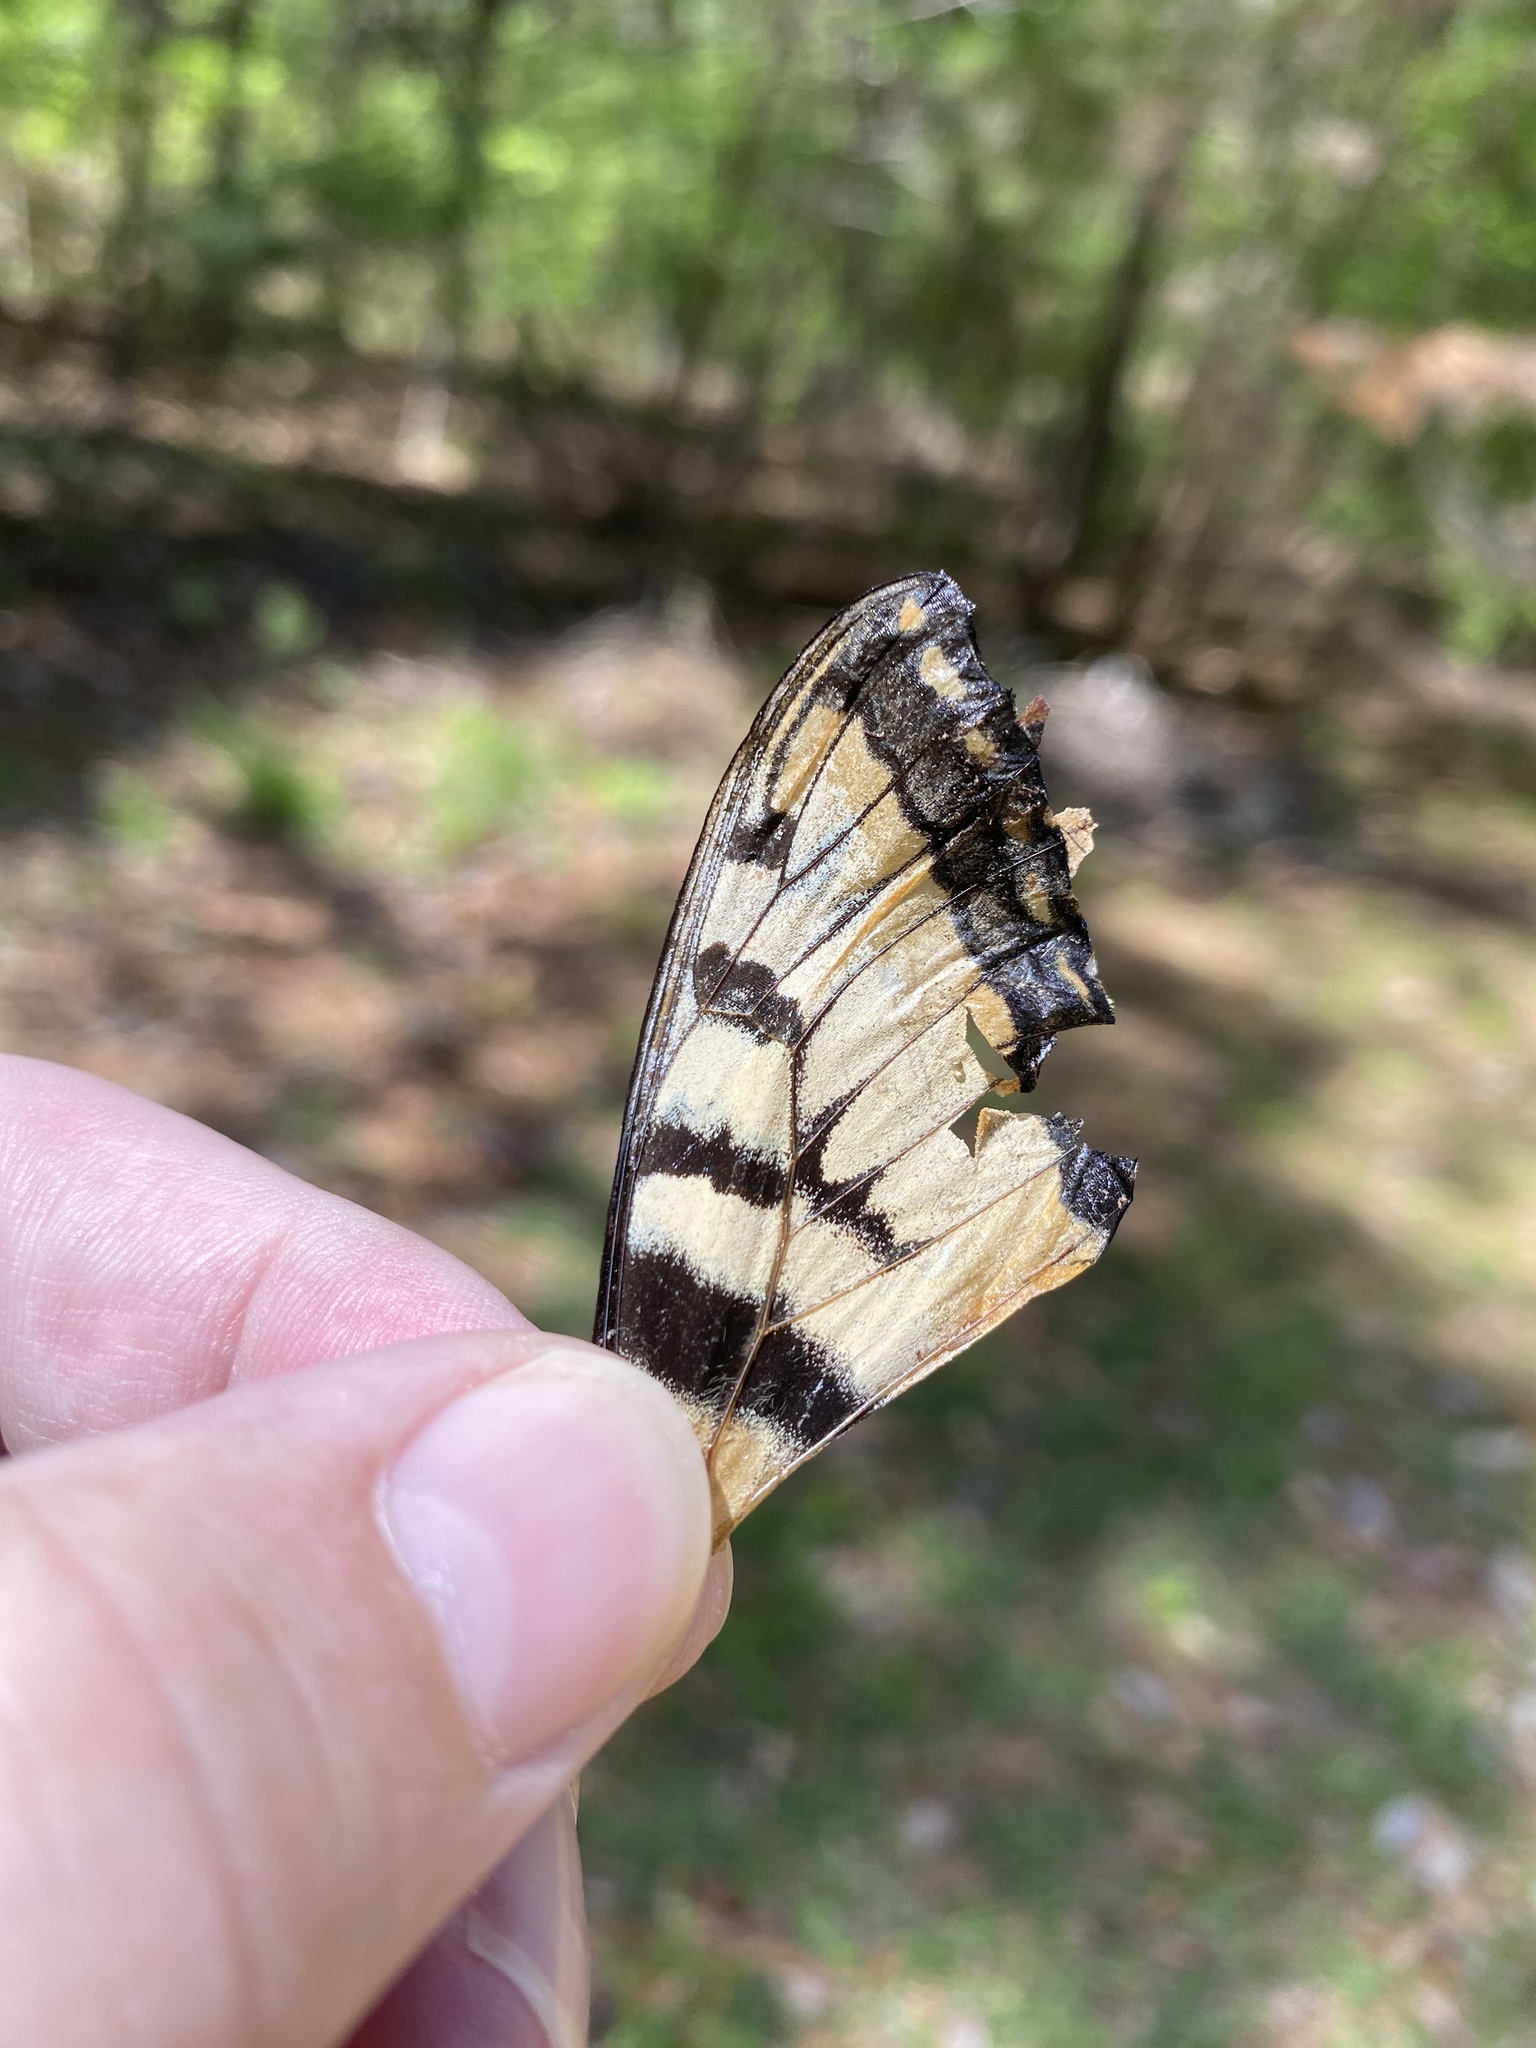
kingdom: Animalia
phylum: Arthropoda
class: Insecta
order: Lepidoptera
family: Papilionidae
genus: Papilio
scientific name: Papilio glaucus
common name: Tiger swallowtail
